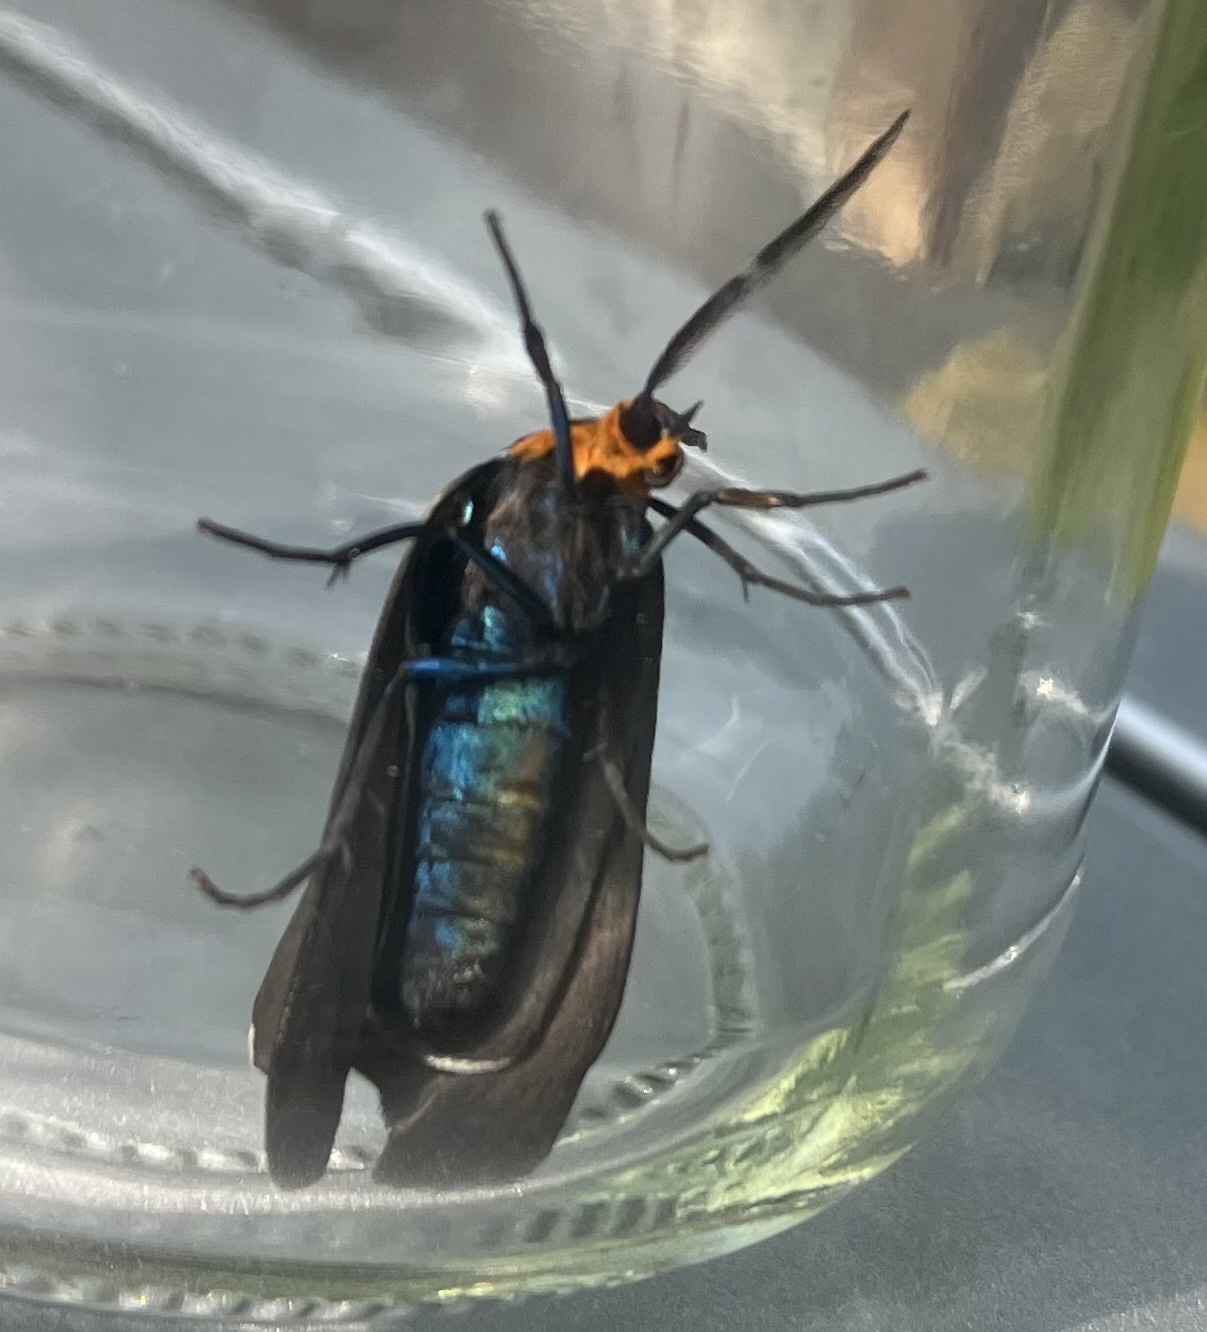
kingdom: Animalia
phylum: Arthropoda
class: Insecta
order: Lepidoptera
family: Erebidae
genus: Ctenucha
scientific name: Ctenucha virginica
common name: Virginia ctenucha moth
